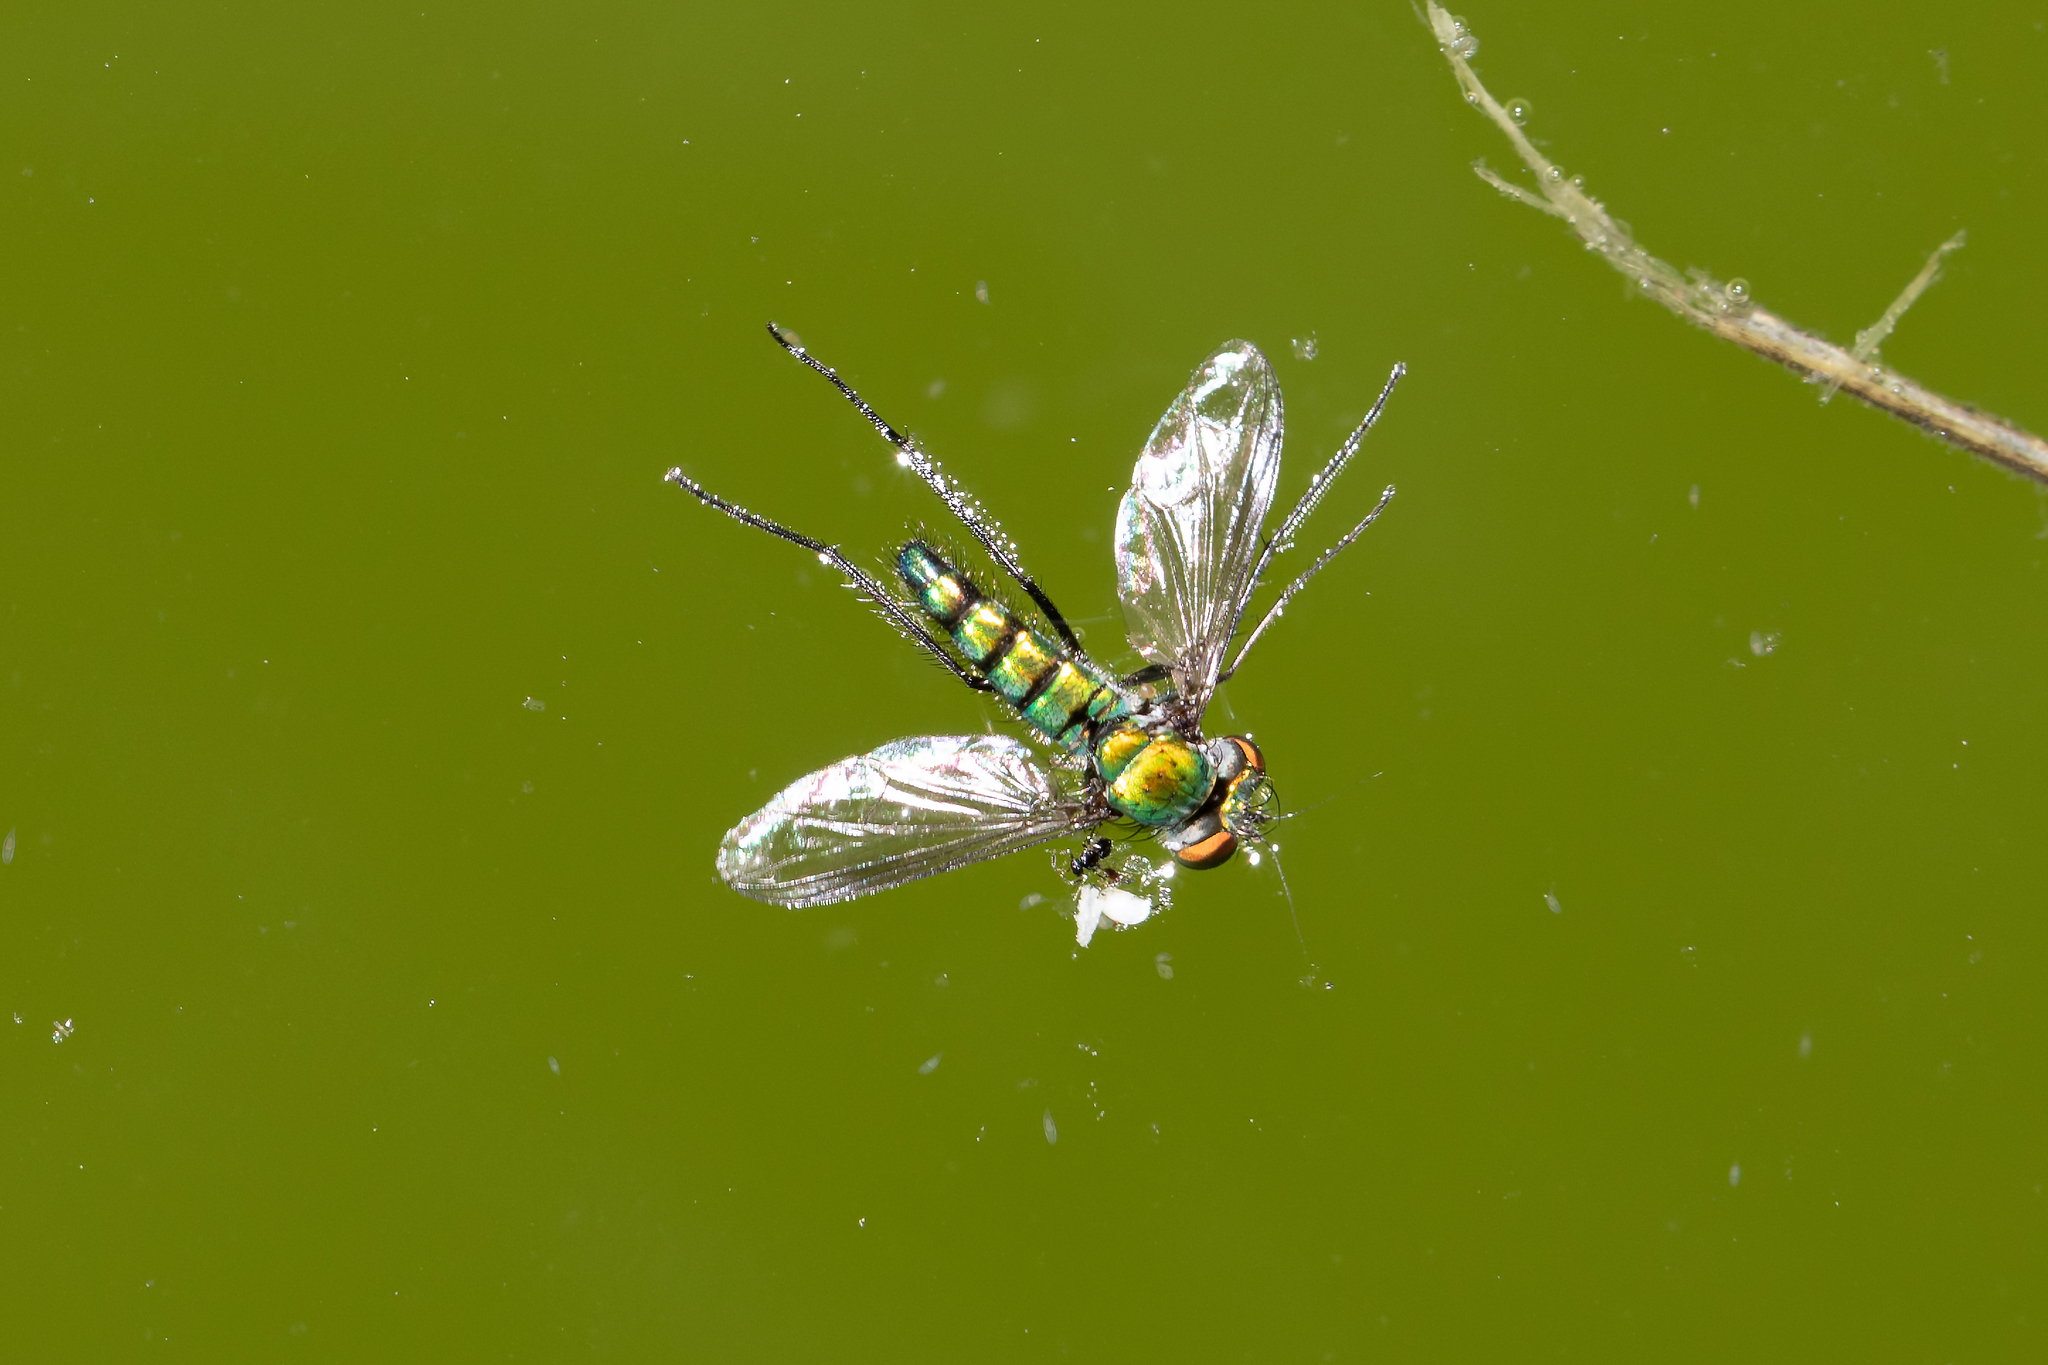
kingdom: Animalia
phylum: Arthropoda
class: Insecta
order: Diptera
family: Dolichopodidae
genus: Condylostylus
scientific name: Condylostylus longicornis
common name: Long-legged fly
